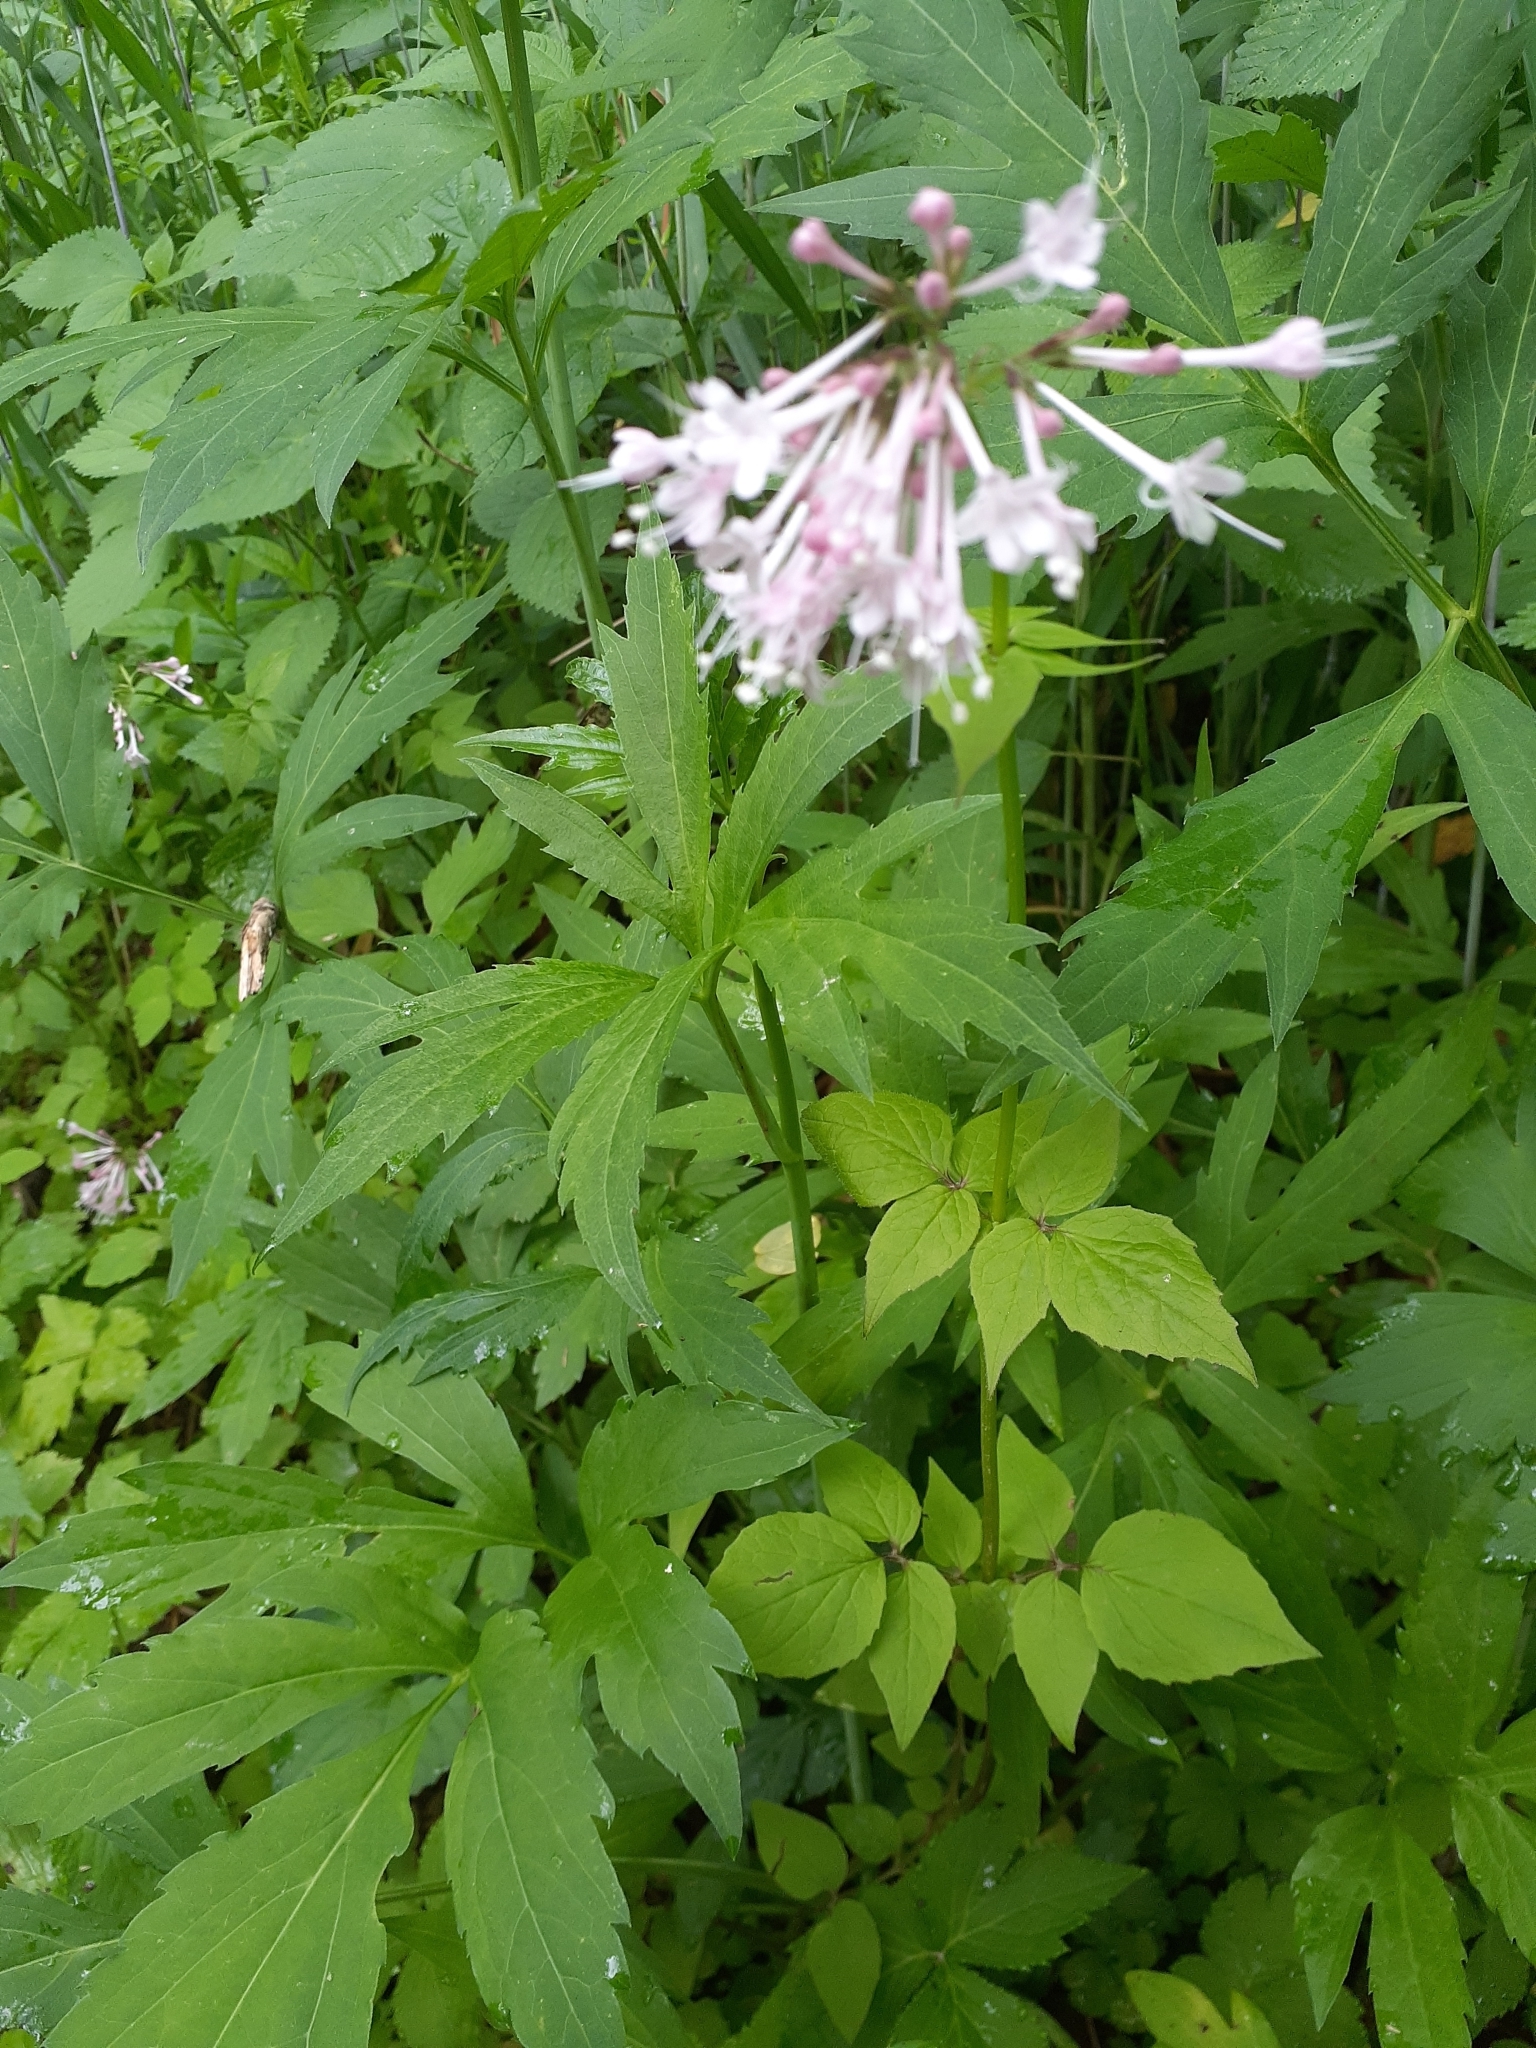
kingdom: Plantae
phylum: Tracheophyta
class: Magnoliopsida
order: Dipsacales
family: Caprifoliaceae
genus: Valeriana
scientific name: Valeriana pauciflora
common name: Long-tube valeriana
